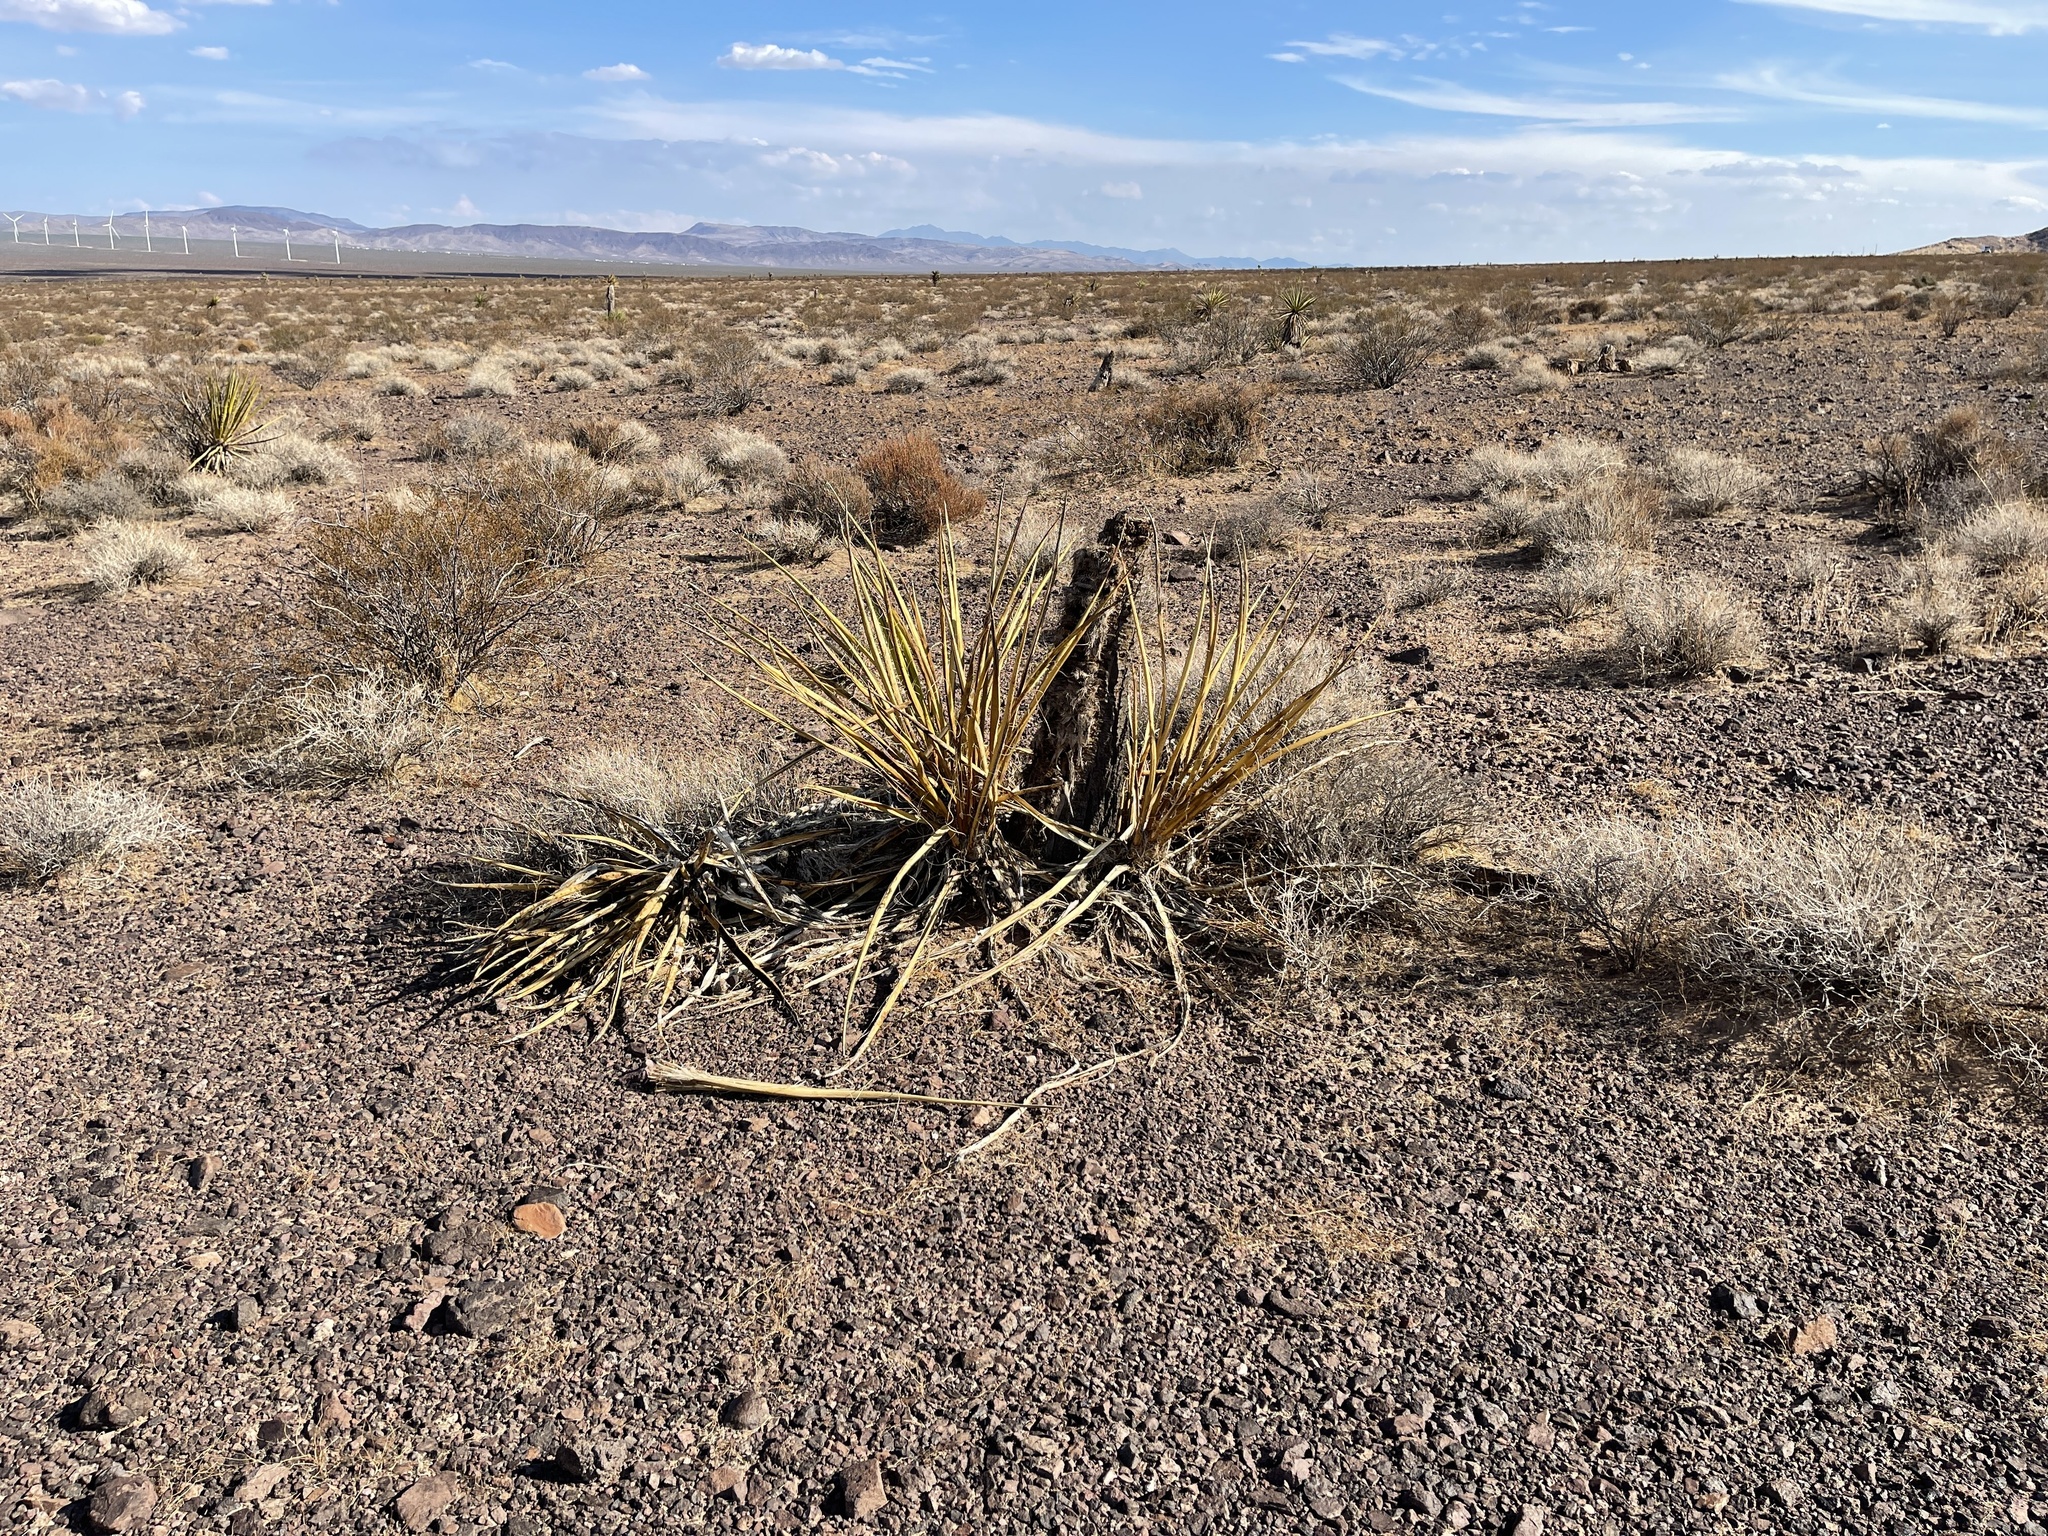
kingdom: Plantae
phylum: Tracheophyta
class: Liliopsida
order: Asparagales
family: Asparagaceae
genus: Yucca
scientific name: Yucca schidigera
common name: Mojave yucca
